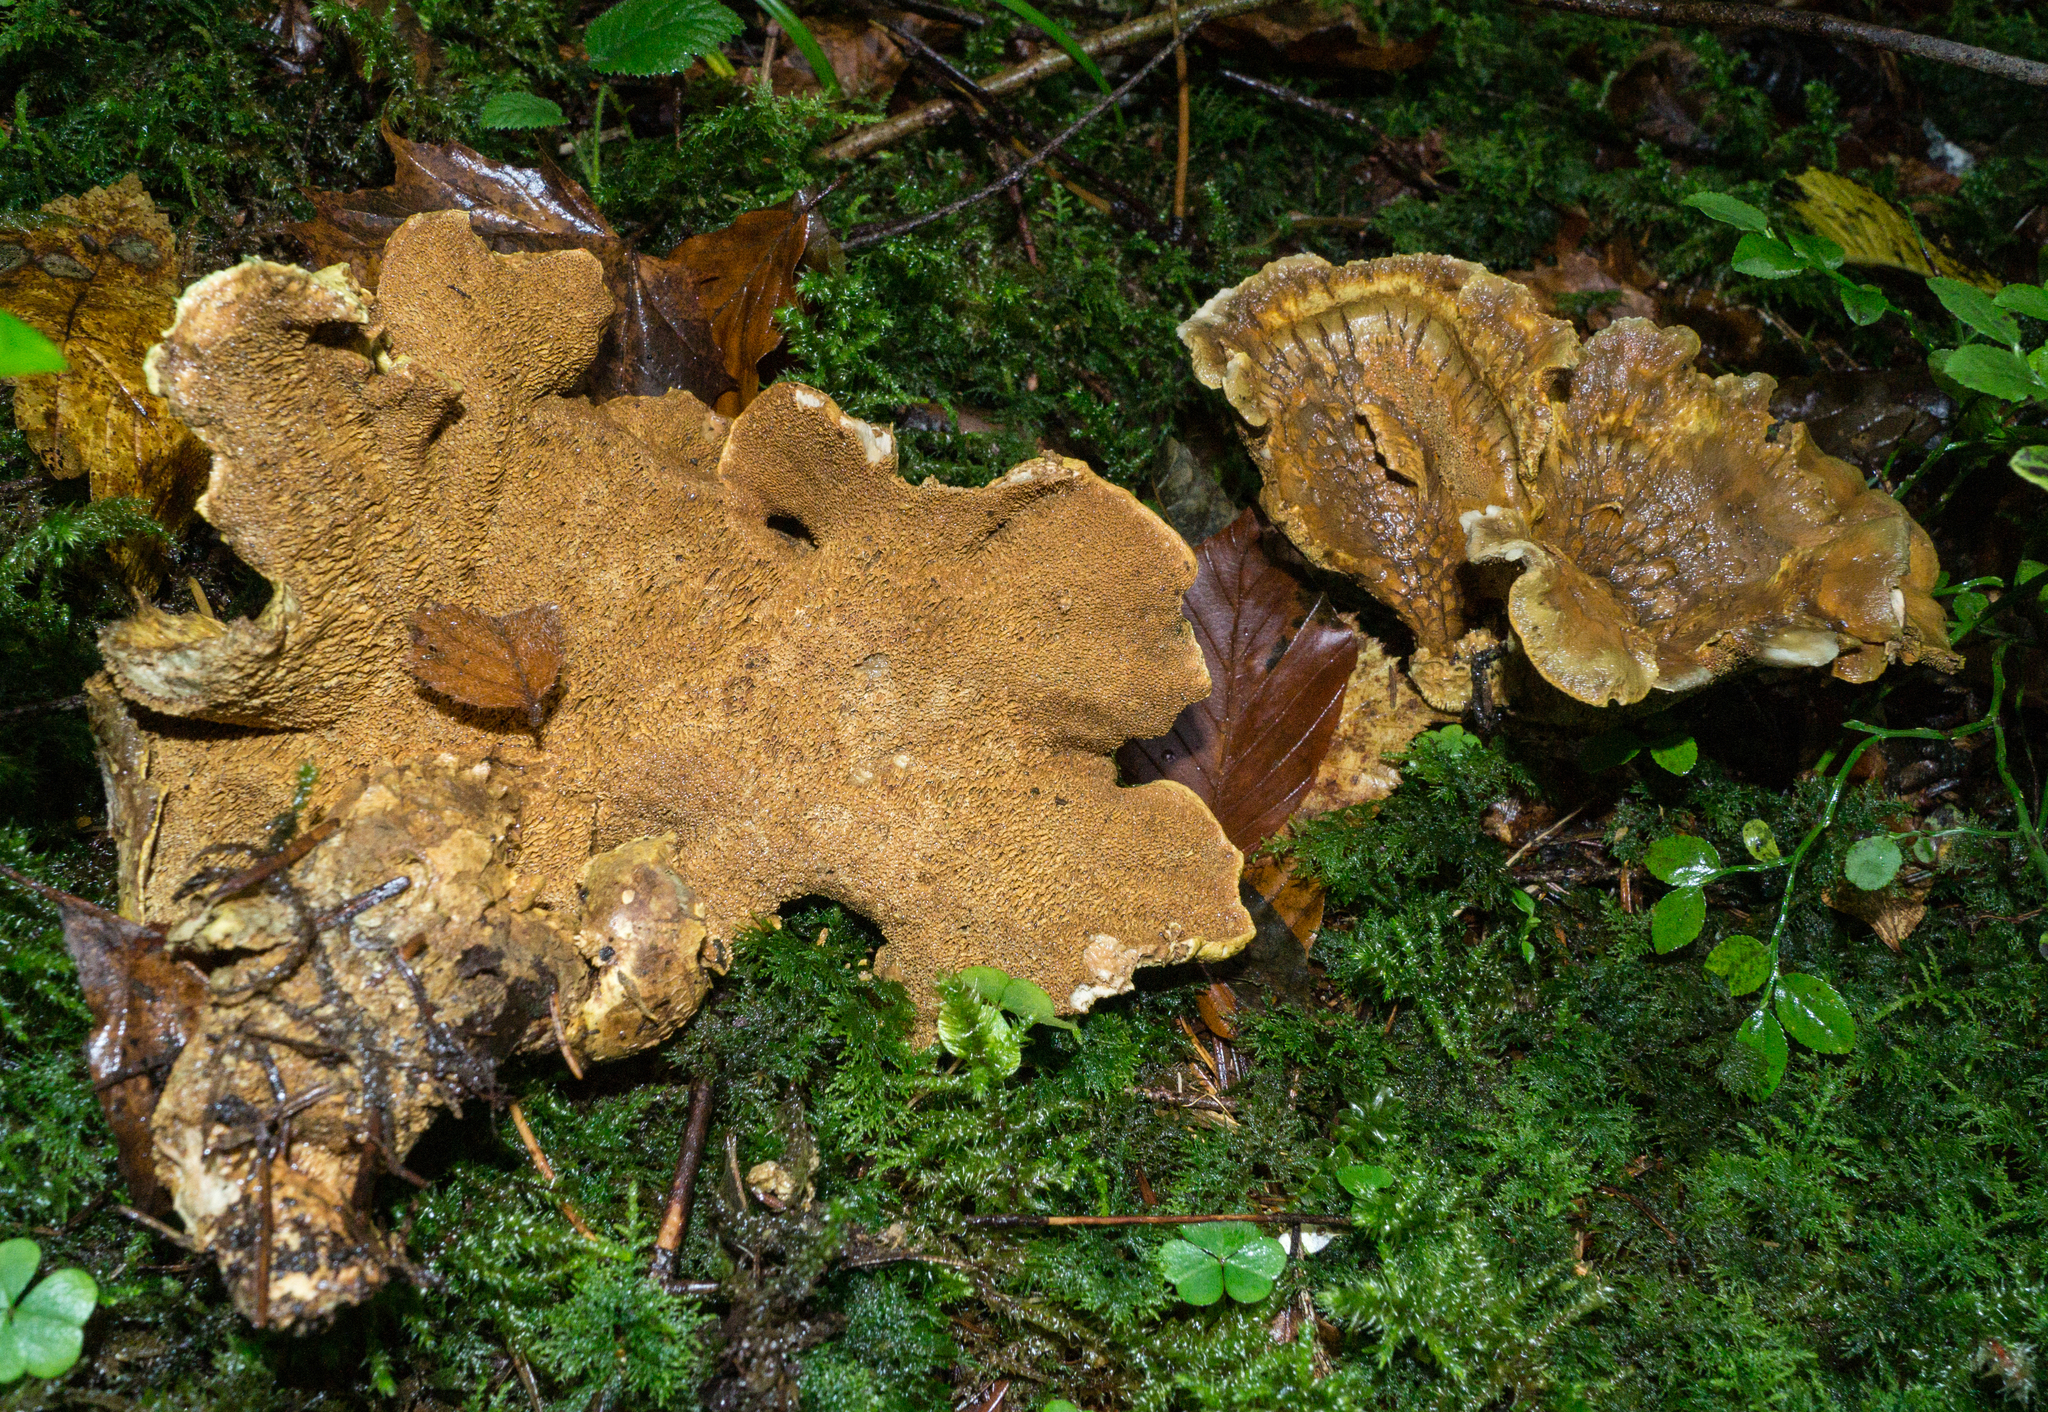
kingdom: Fungi
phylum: Basidiomycota
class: Agaricomycetes
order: Russulales
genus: Laeticutis
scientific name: Laeticutis cristata
